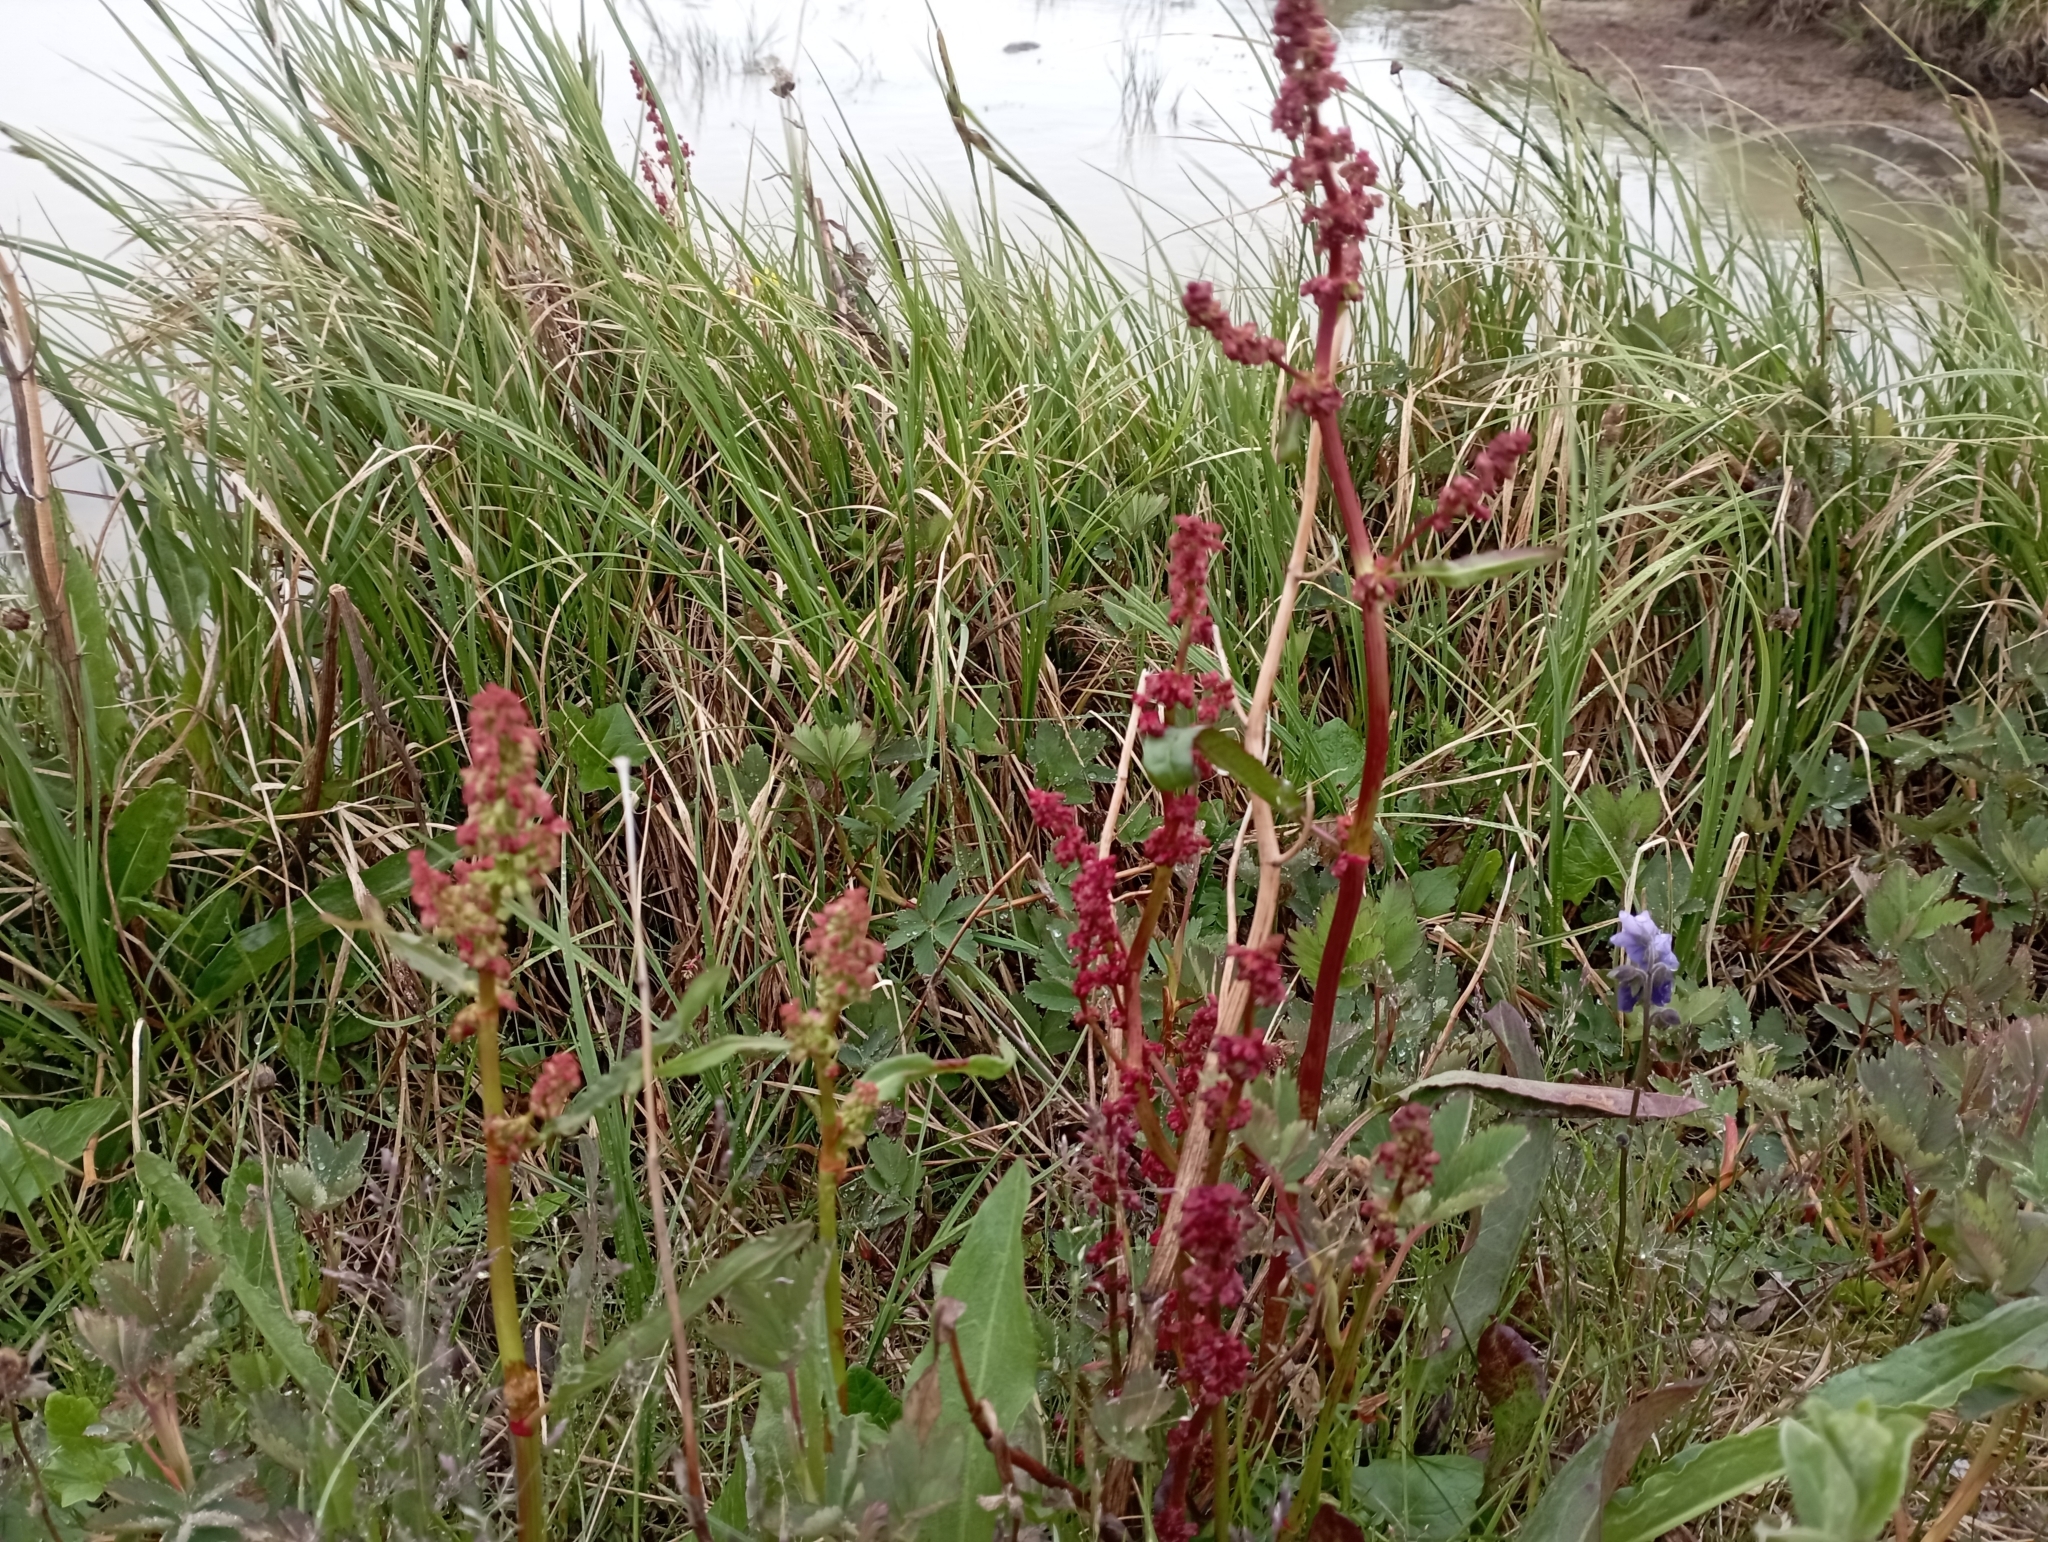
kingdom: Plantae
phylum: Tracheophyta
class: Magnoliopsida
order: Caryophyllales
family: Polygonaceae
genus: Rumex
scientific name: Rumex arcticus
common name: Arctic dock
